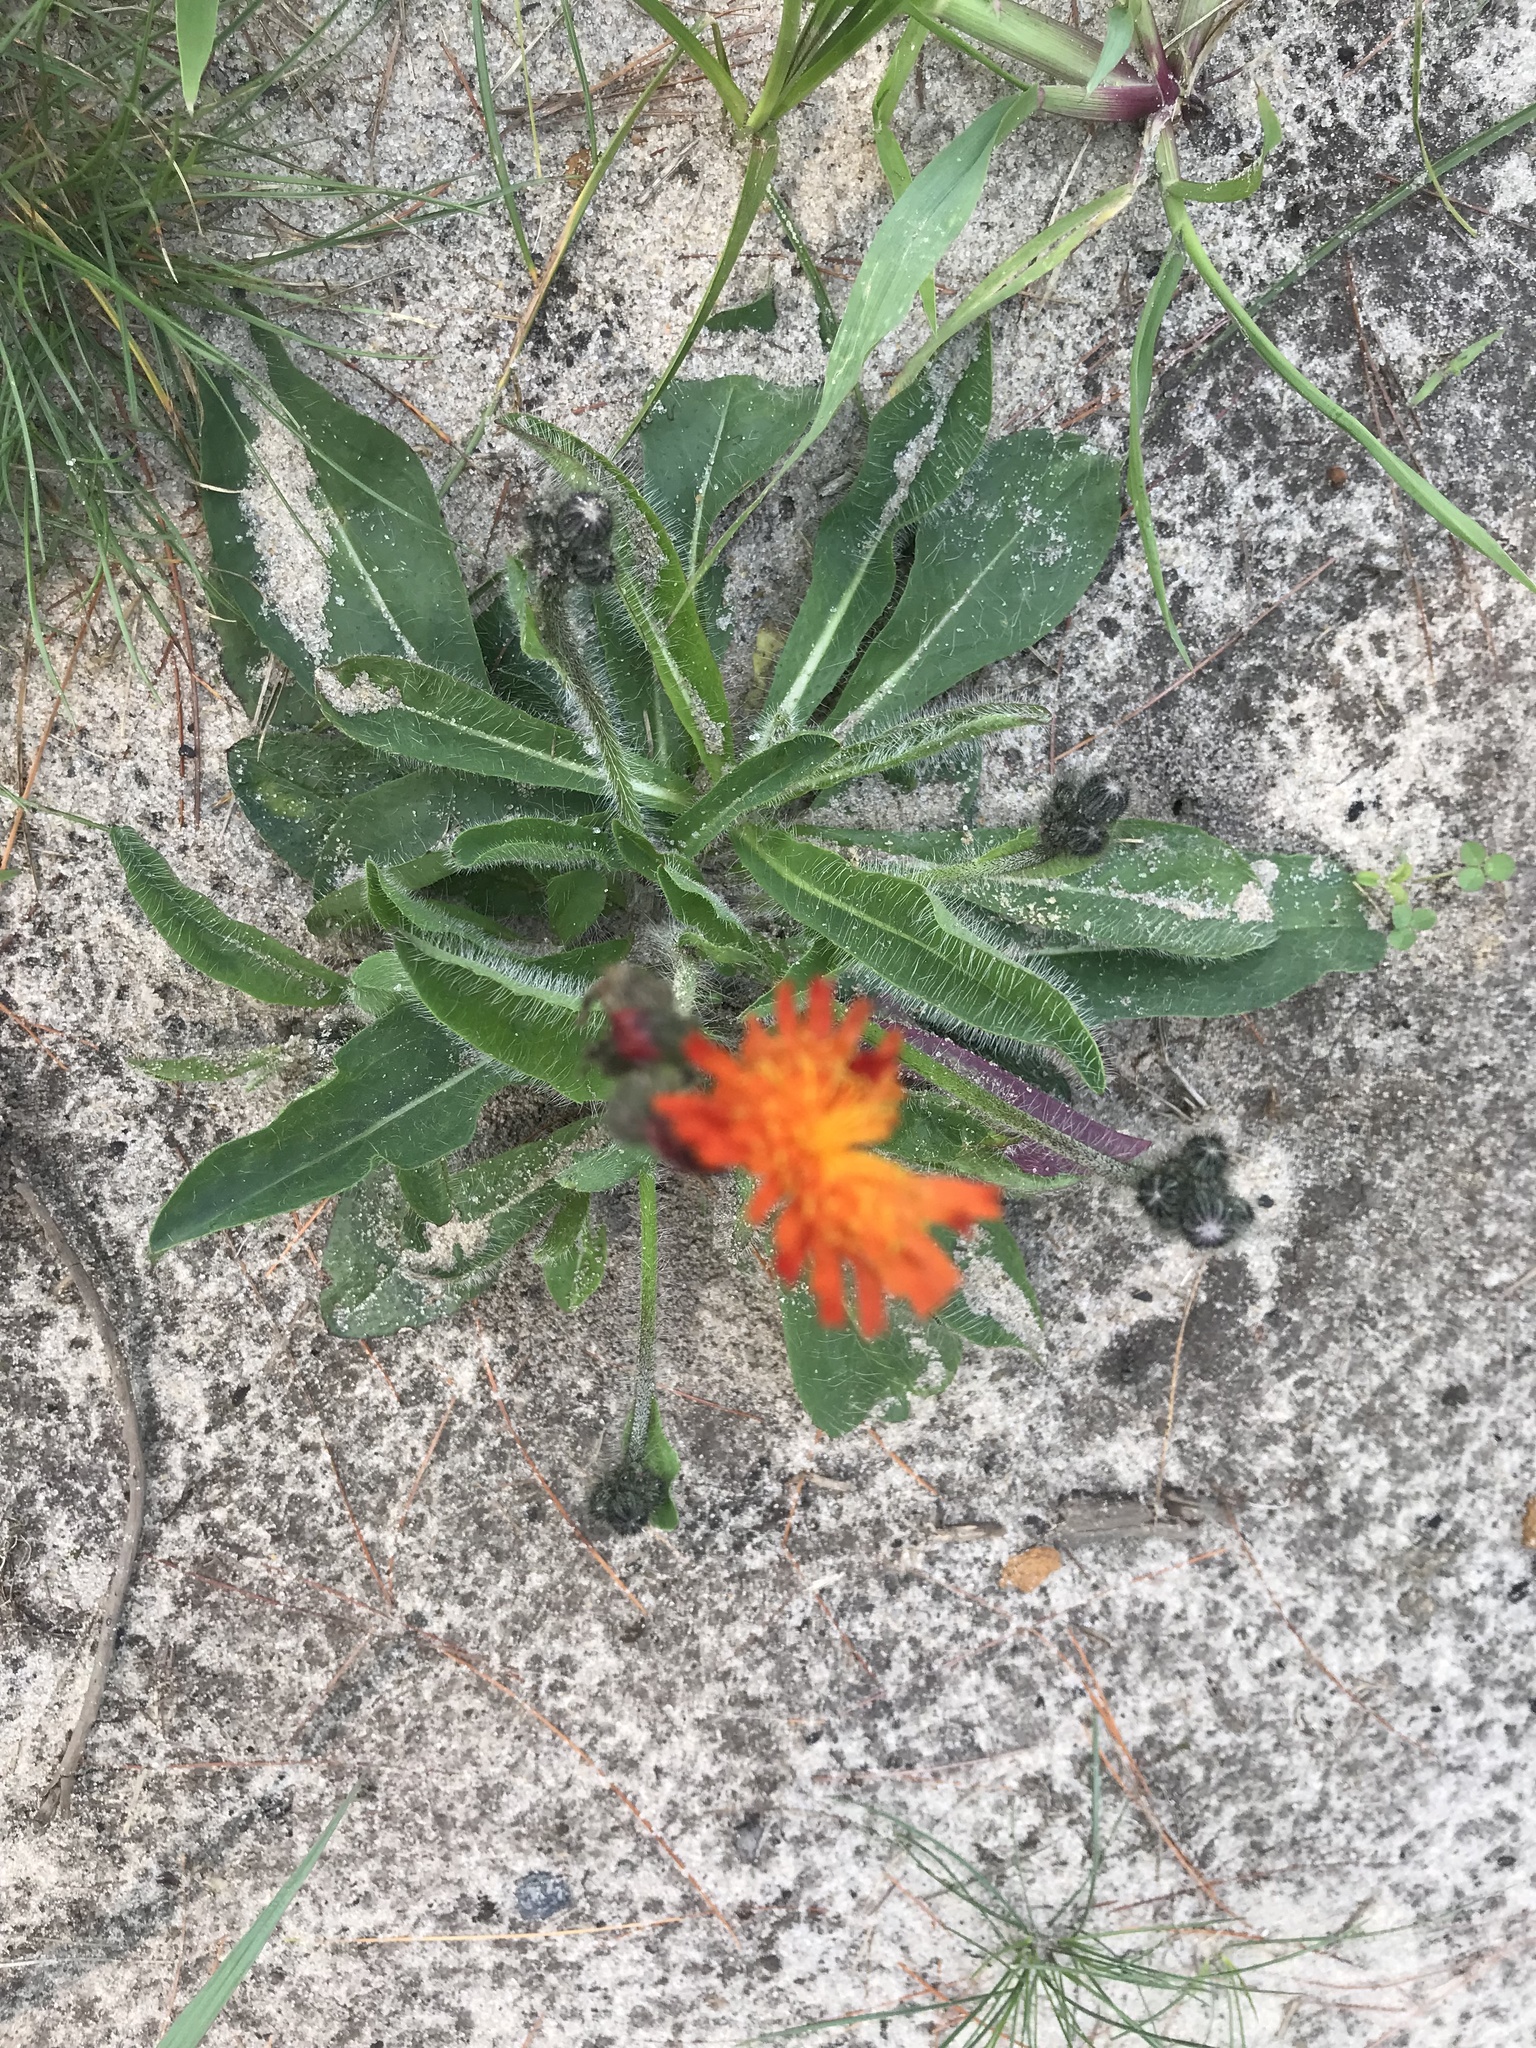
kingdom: Plantae
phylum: Tracheophyta
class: Magnoliopsida
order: Asterales
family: Asteraceae
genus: Pilosella
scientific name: Pilosella aurantiaca
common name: Fox-and-cubs
